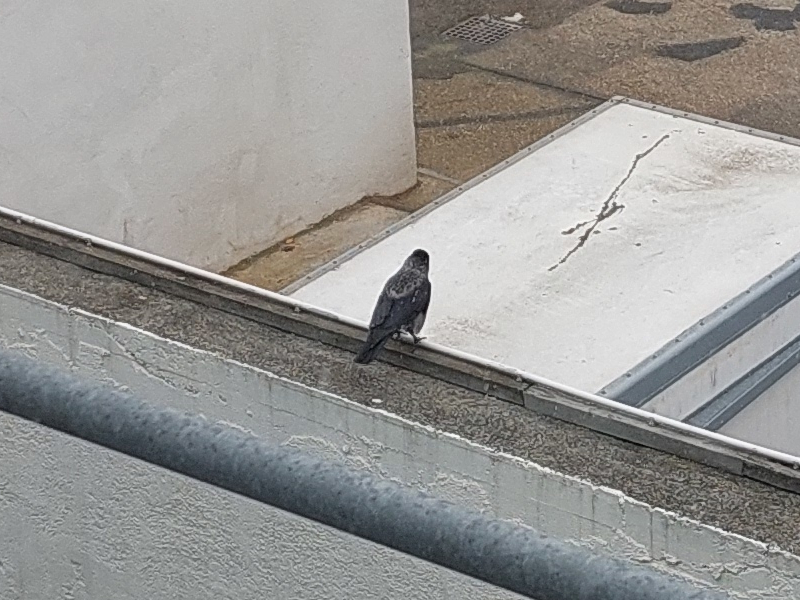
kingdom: Animalia
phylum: Chordata
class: Aves
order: Passeriformes
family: Corvidae
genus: Corvus
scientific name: Corvus
